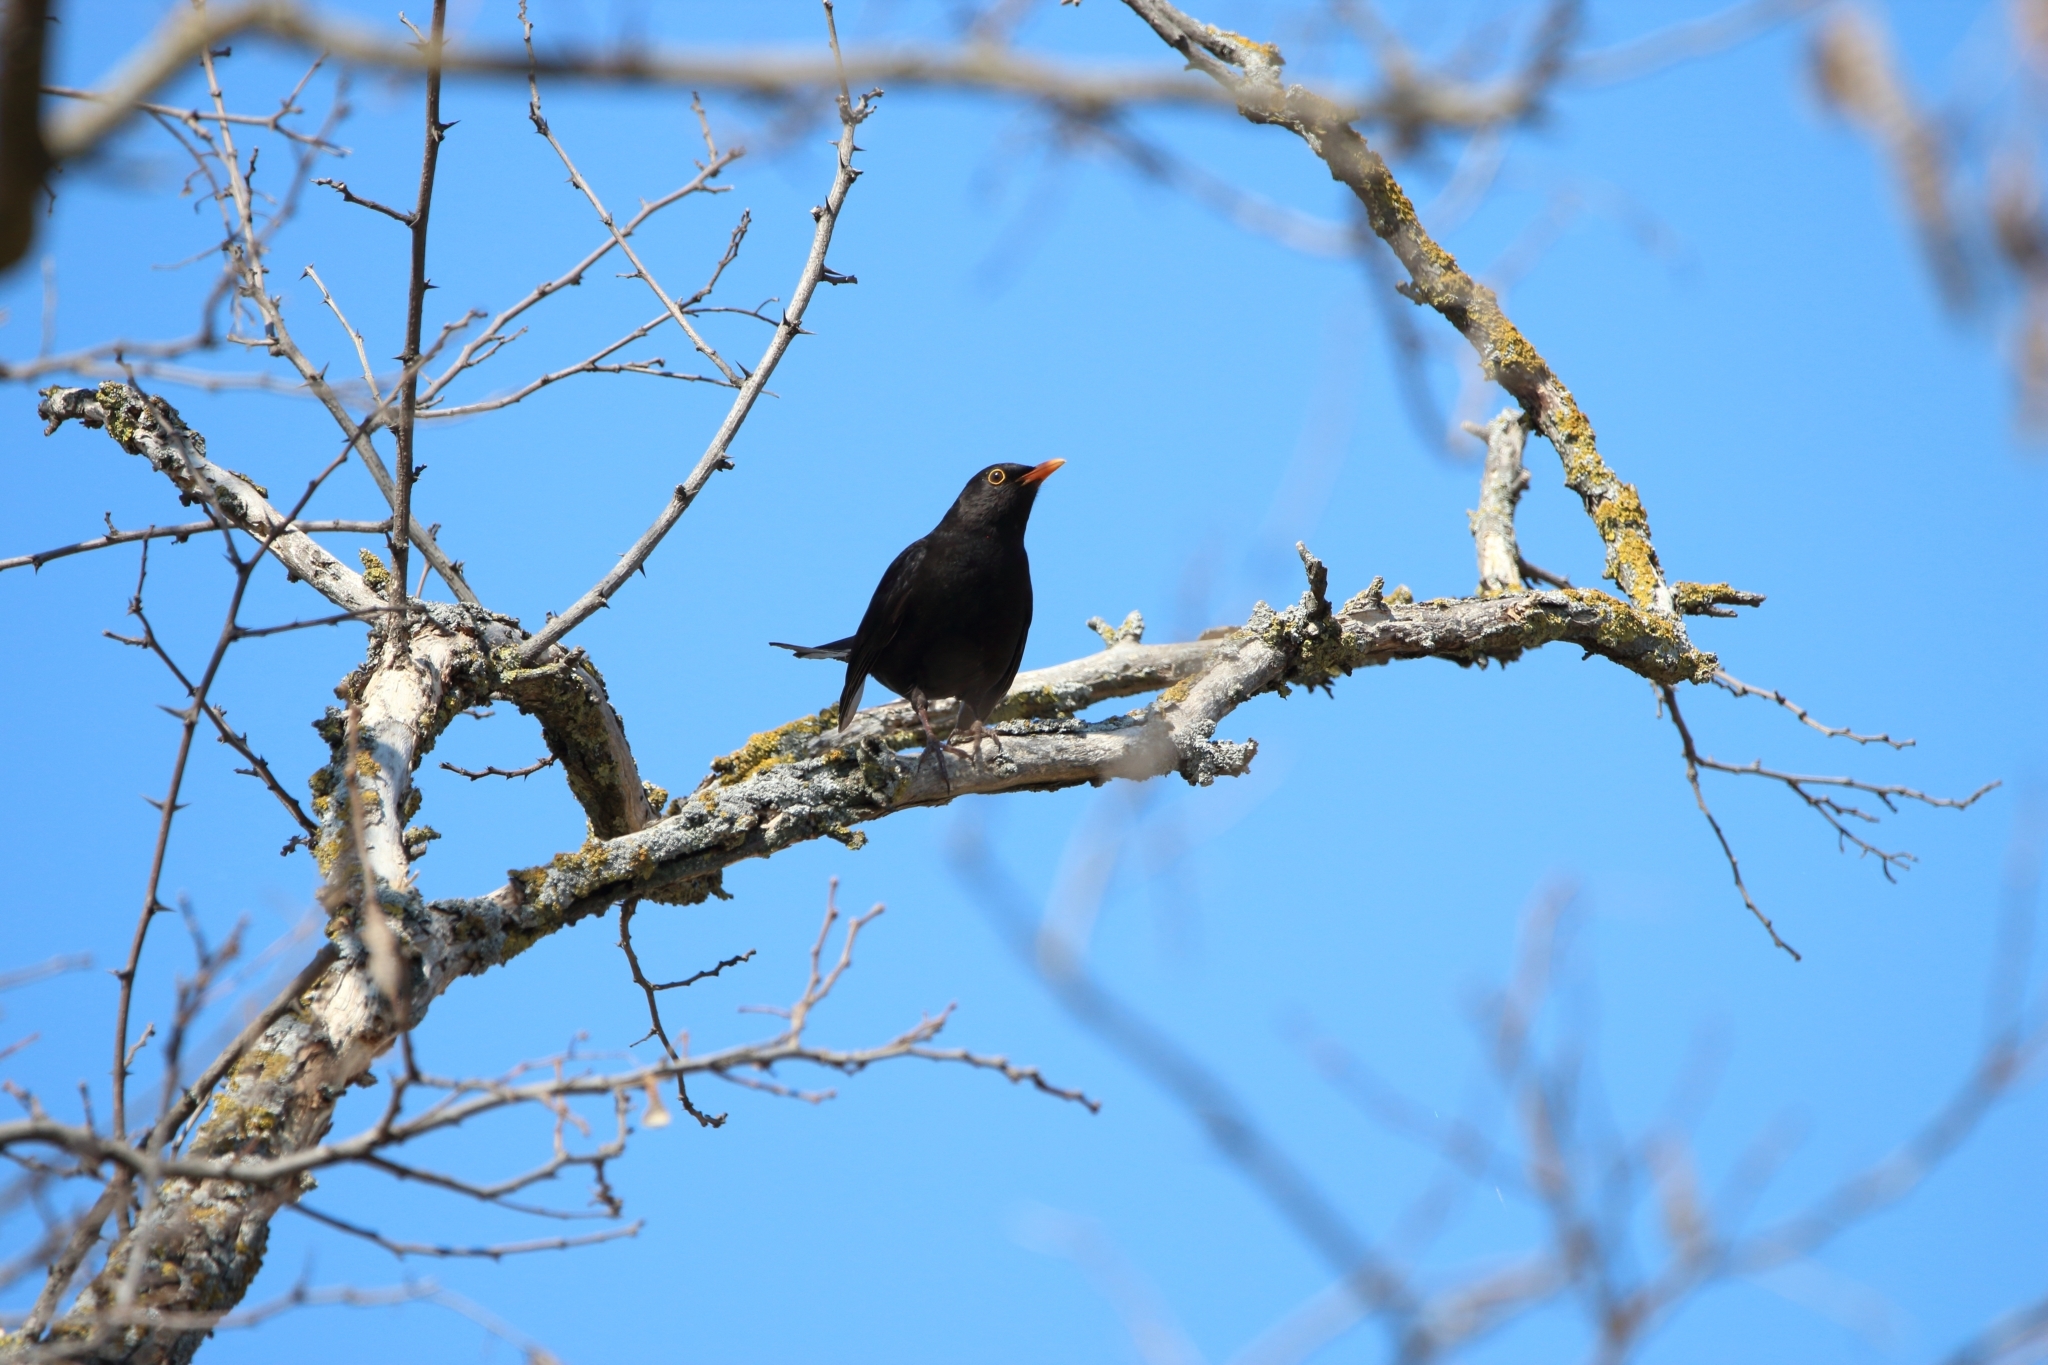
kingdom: Animalia
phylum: Chordata
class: Aves
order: Passeriformes
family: Turdidae
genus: Turdus
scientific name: Turdus merula
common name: Common blackbird
